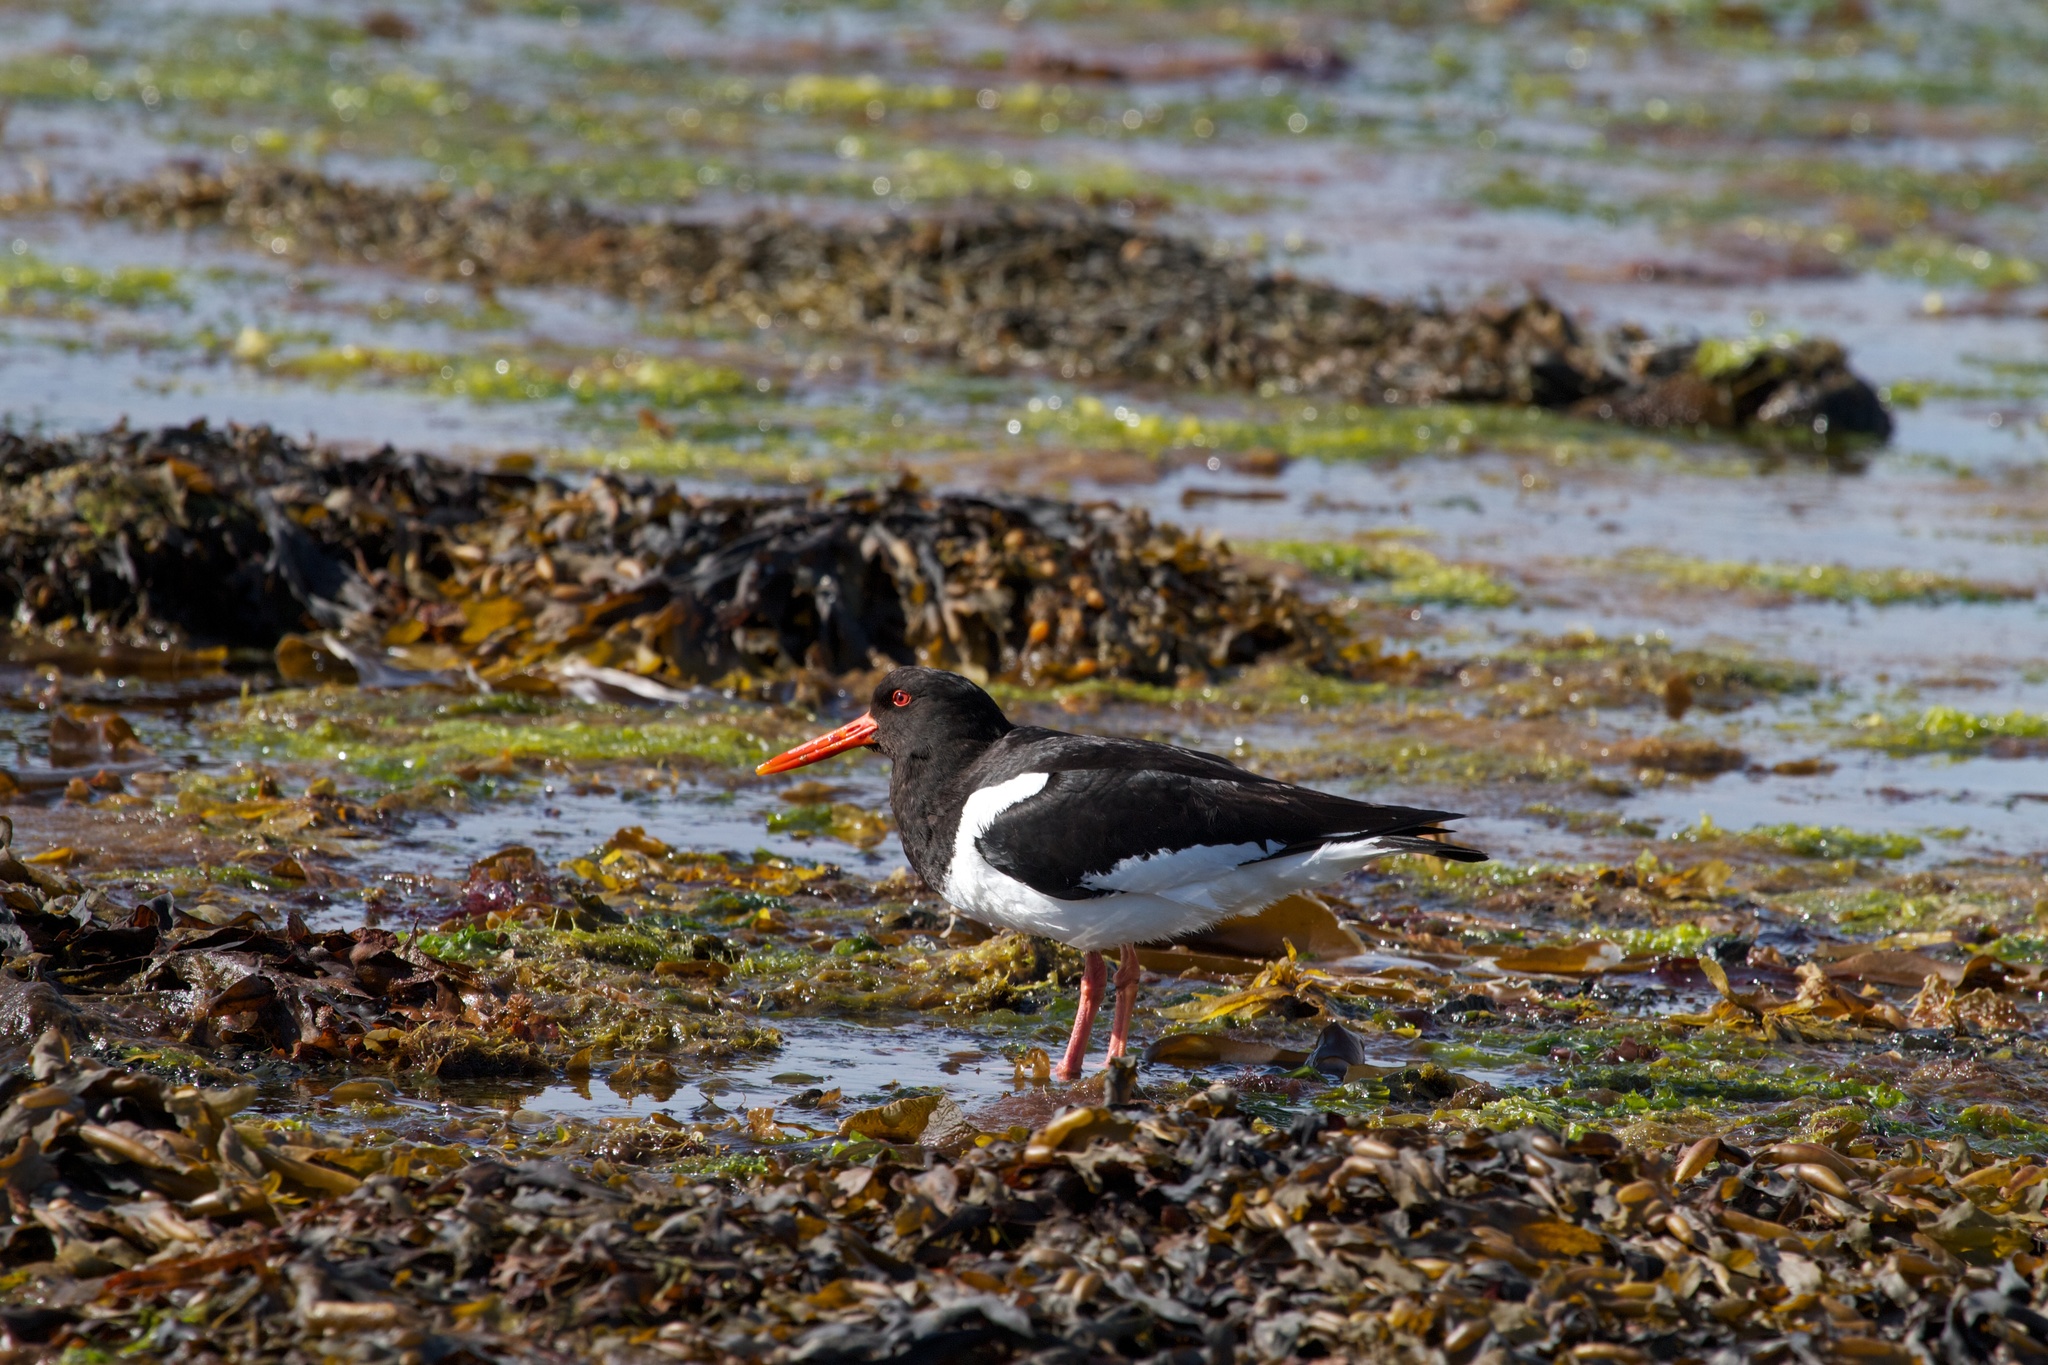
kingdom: Animalia
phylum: Chordata
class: Aves
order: Charadriiformes
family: Haematopodidae
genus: Haematopus
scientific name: Haematopus ostralegus
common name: Eurasian oystercatcher
